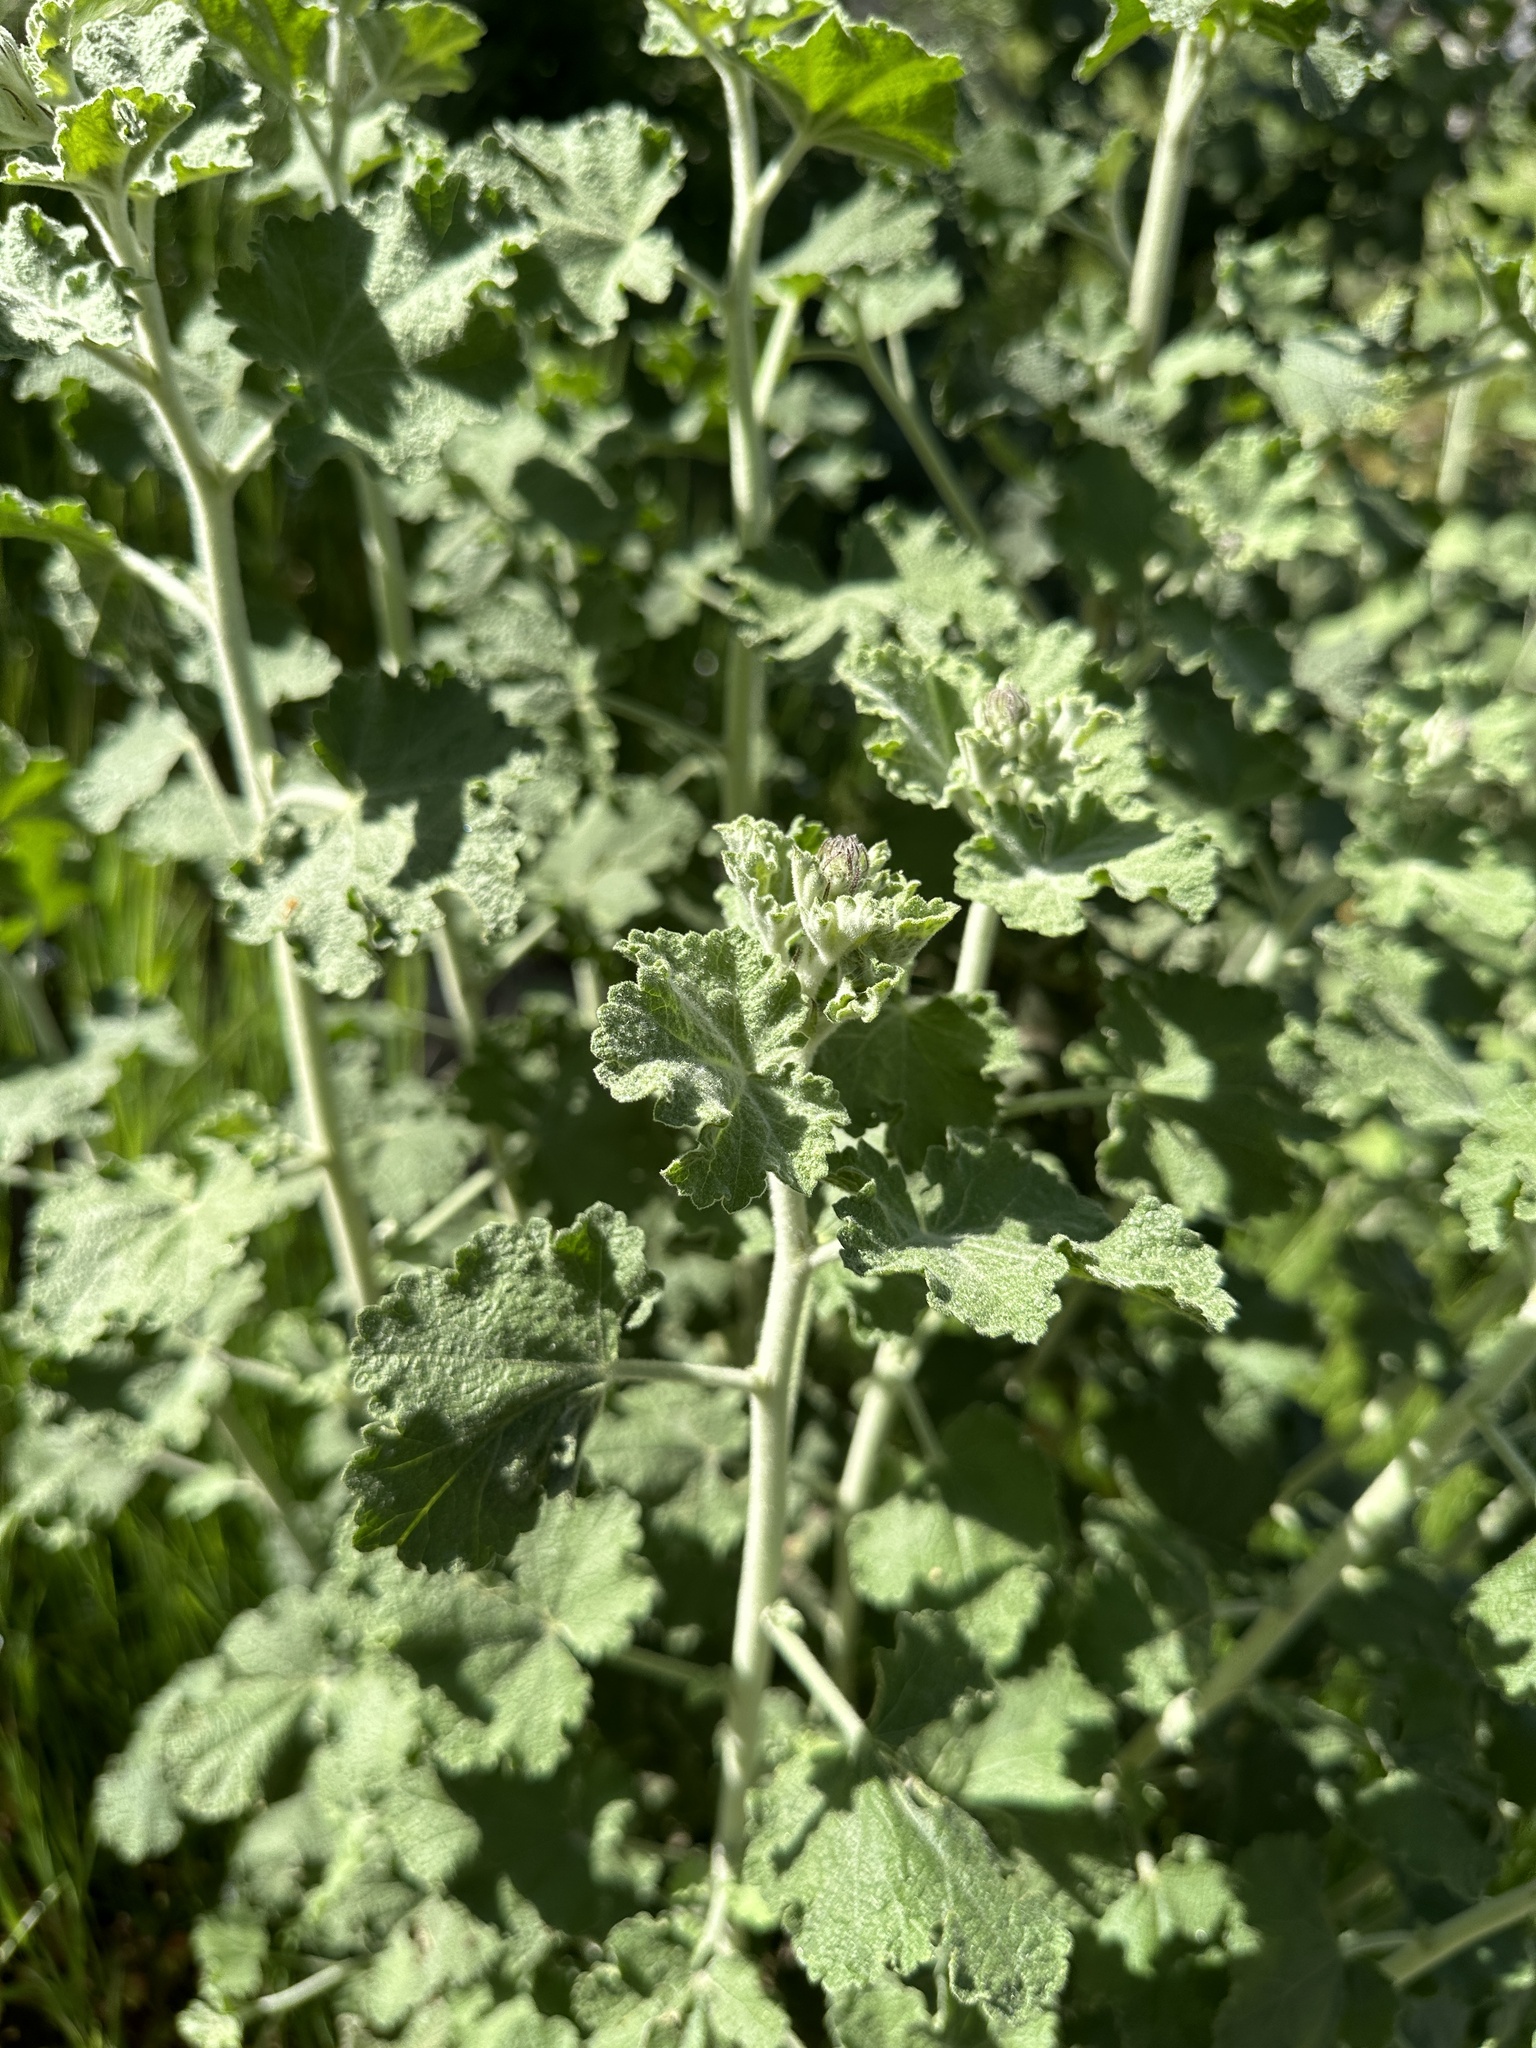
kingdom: Plantae
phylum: Tracheophyta
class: Magnoliopsida
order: Malvales
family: Malvaceae
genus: Malacothamnus
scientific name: Malacothamnus fremontii
